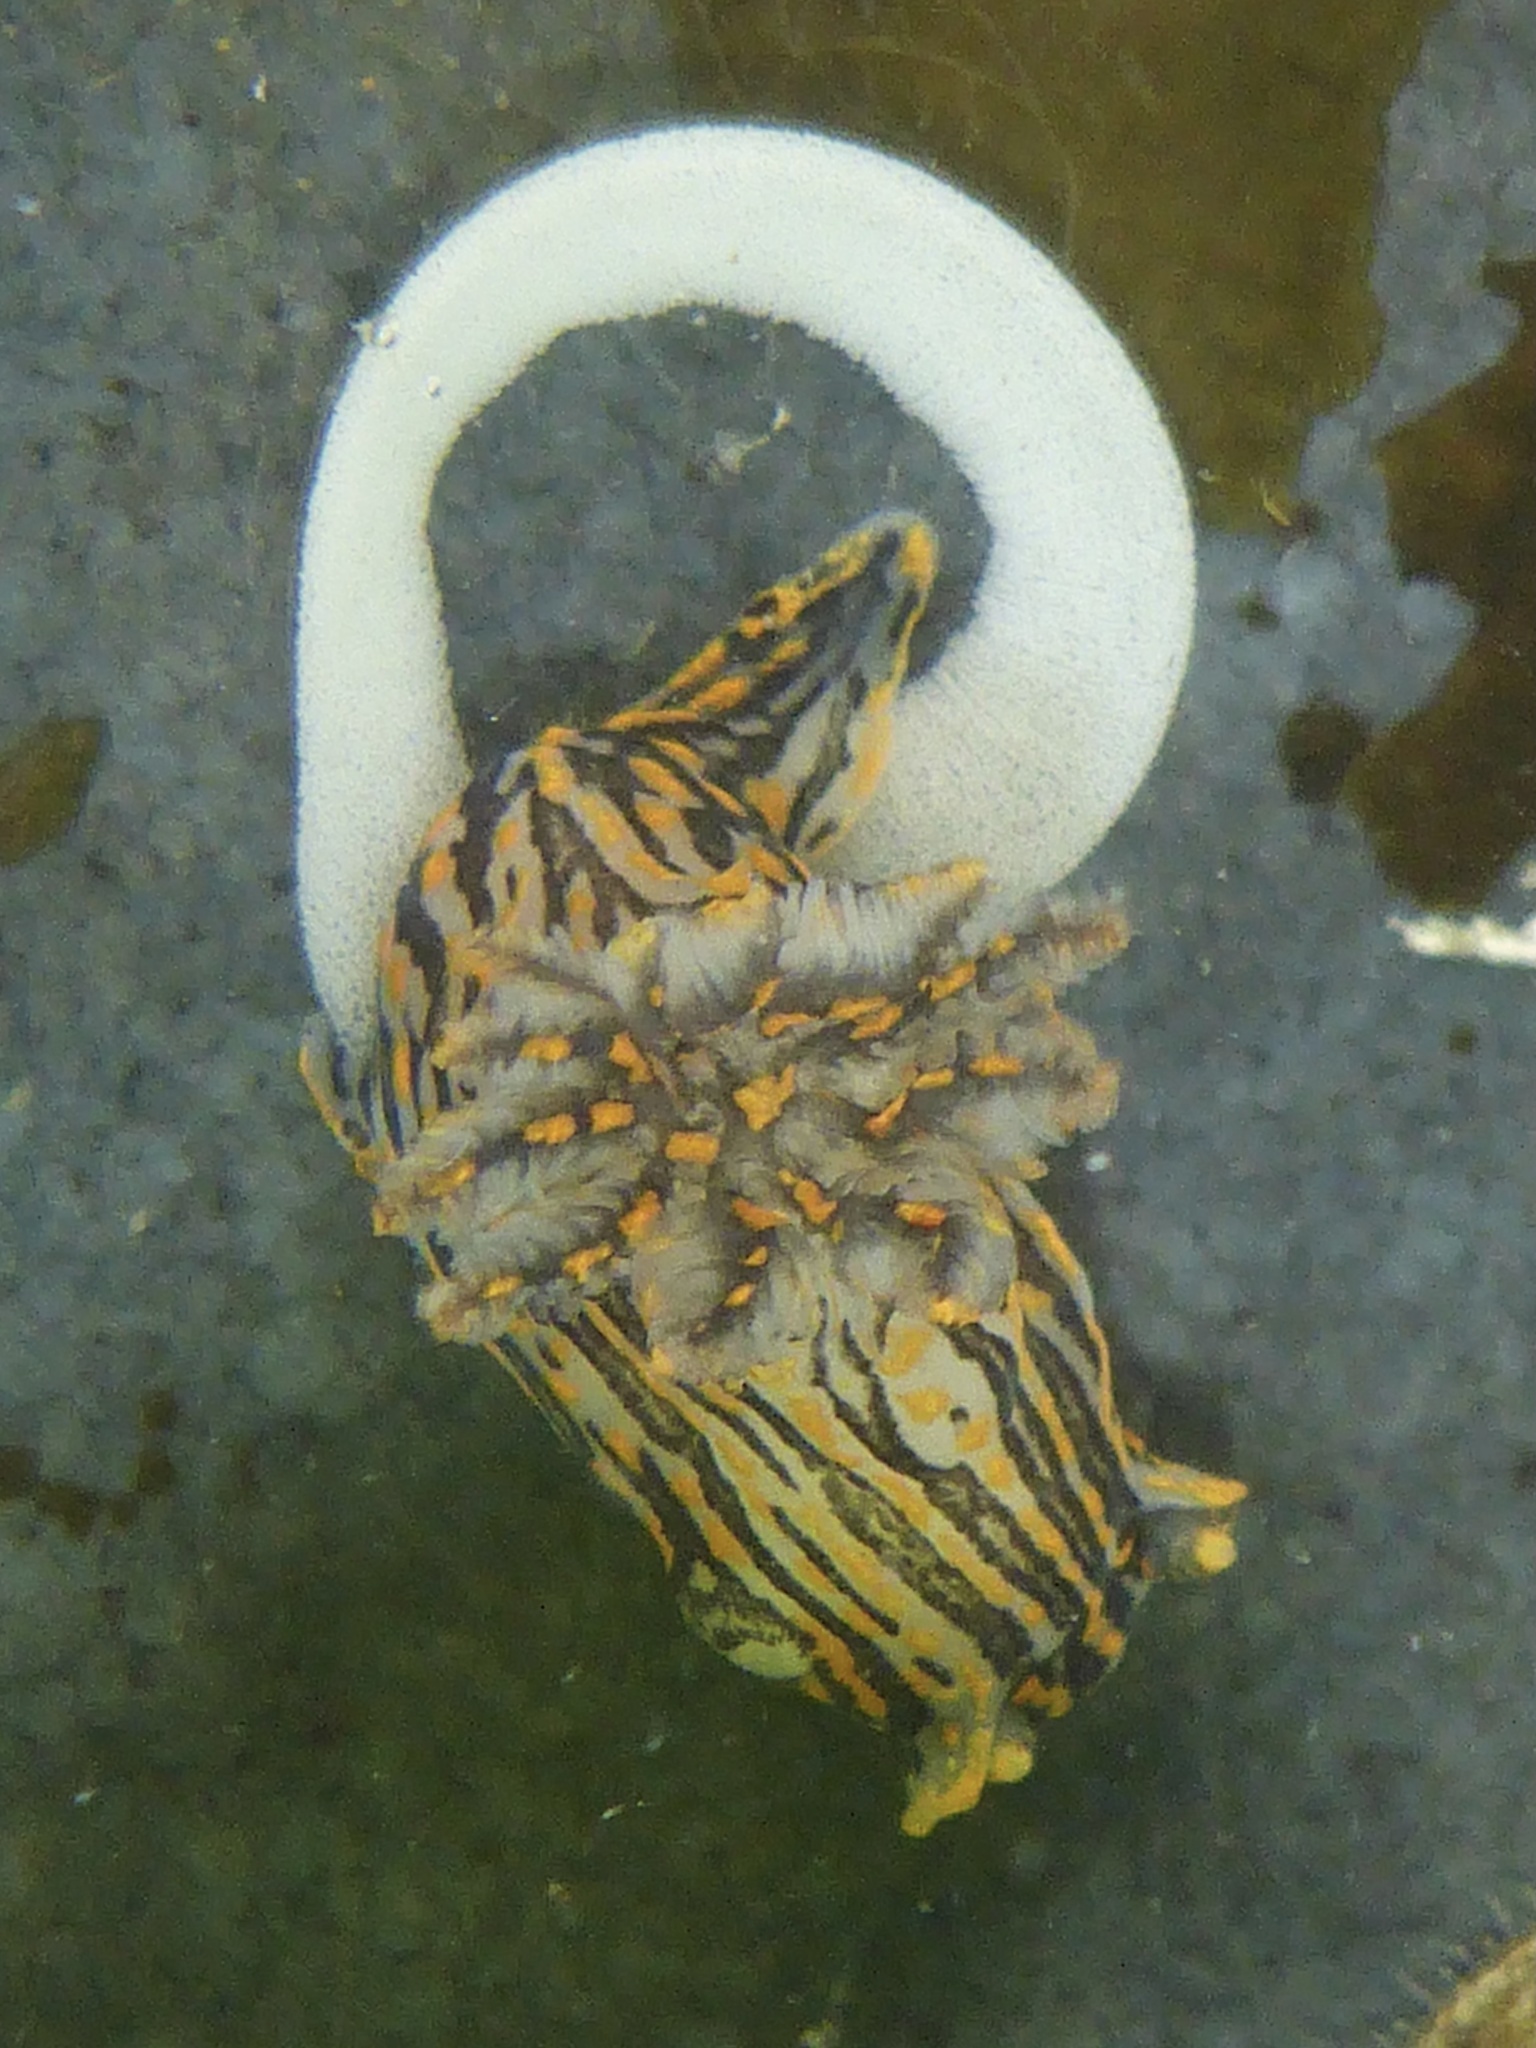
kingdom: Animalia
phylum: Mollusca
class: Gastropoda
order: Nudibranchia
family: Polyceridae
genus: Polycera
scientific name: Polycera atra
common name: Orange-spike polycera
